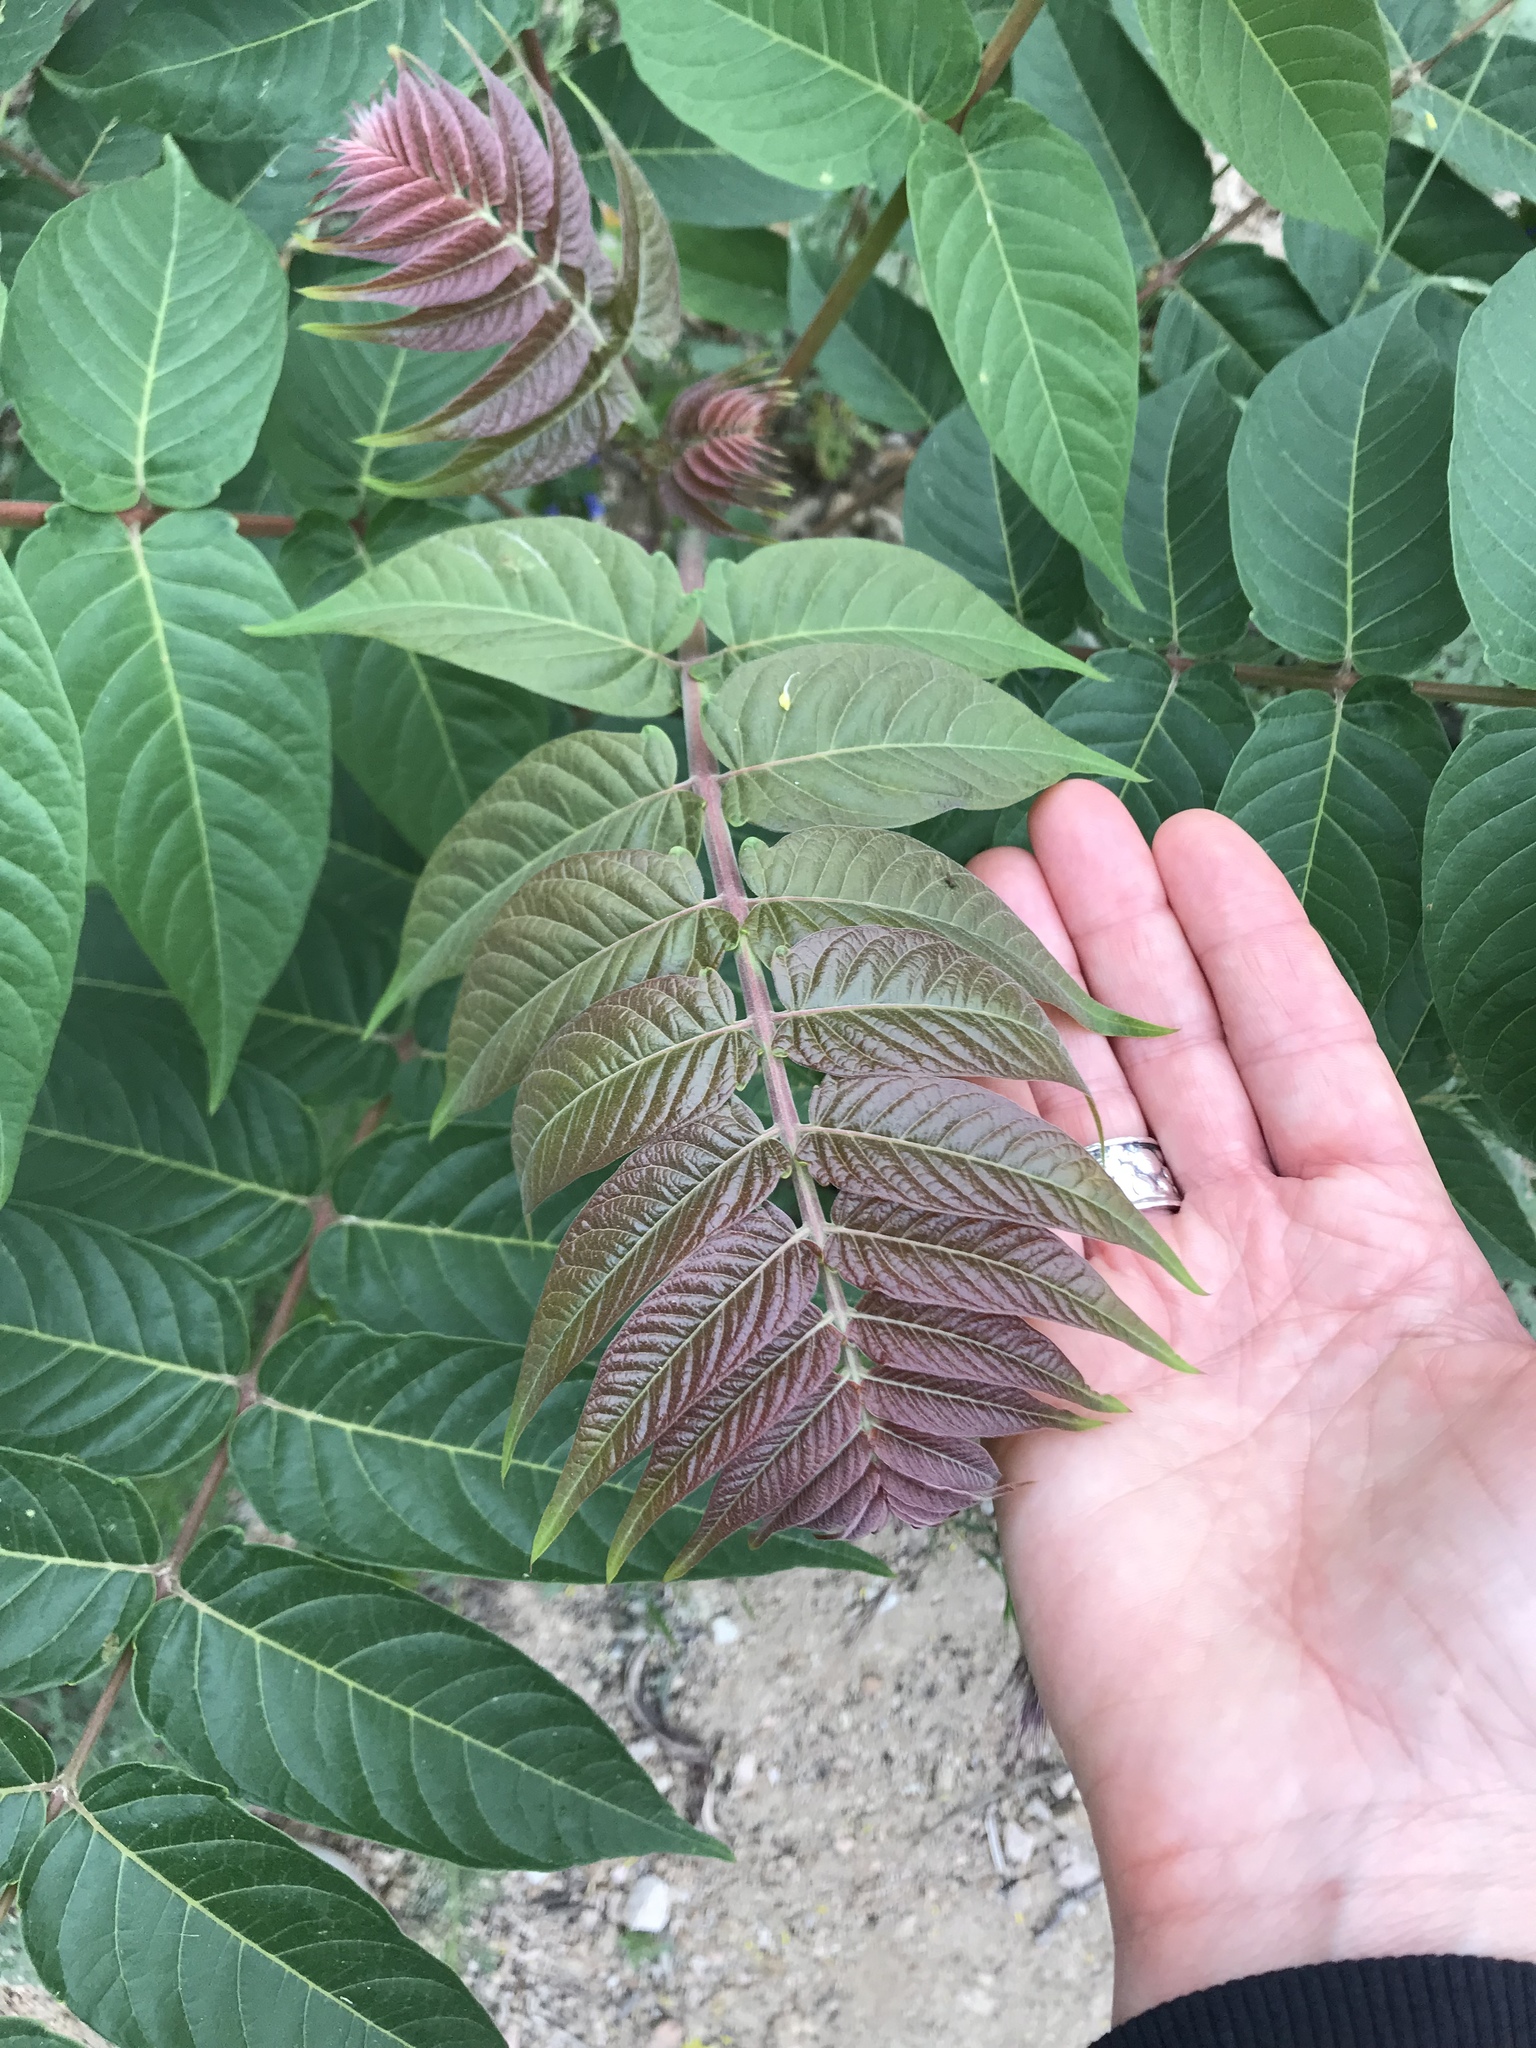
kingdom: Plantae
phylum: Tracheophyta
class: Magnoliopsida
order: Sapindales
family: Simaroubaceae
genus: Ailanthus
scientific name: Ailanthus altissima
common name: Tree-of-heaven
